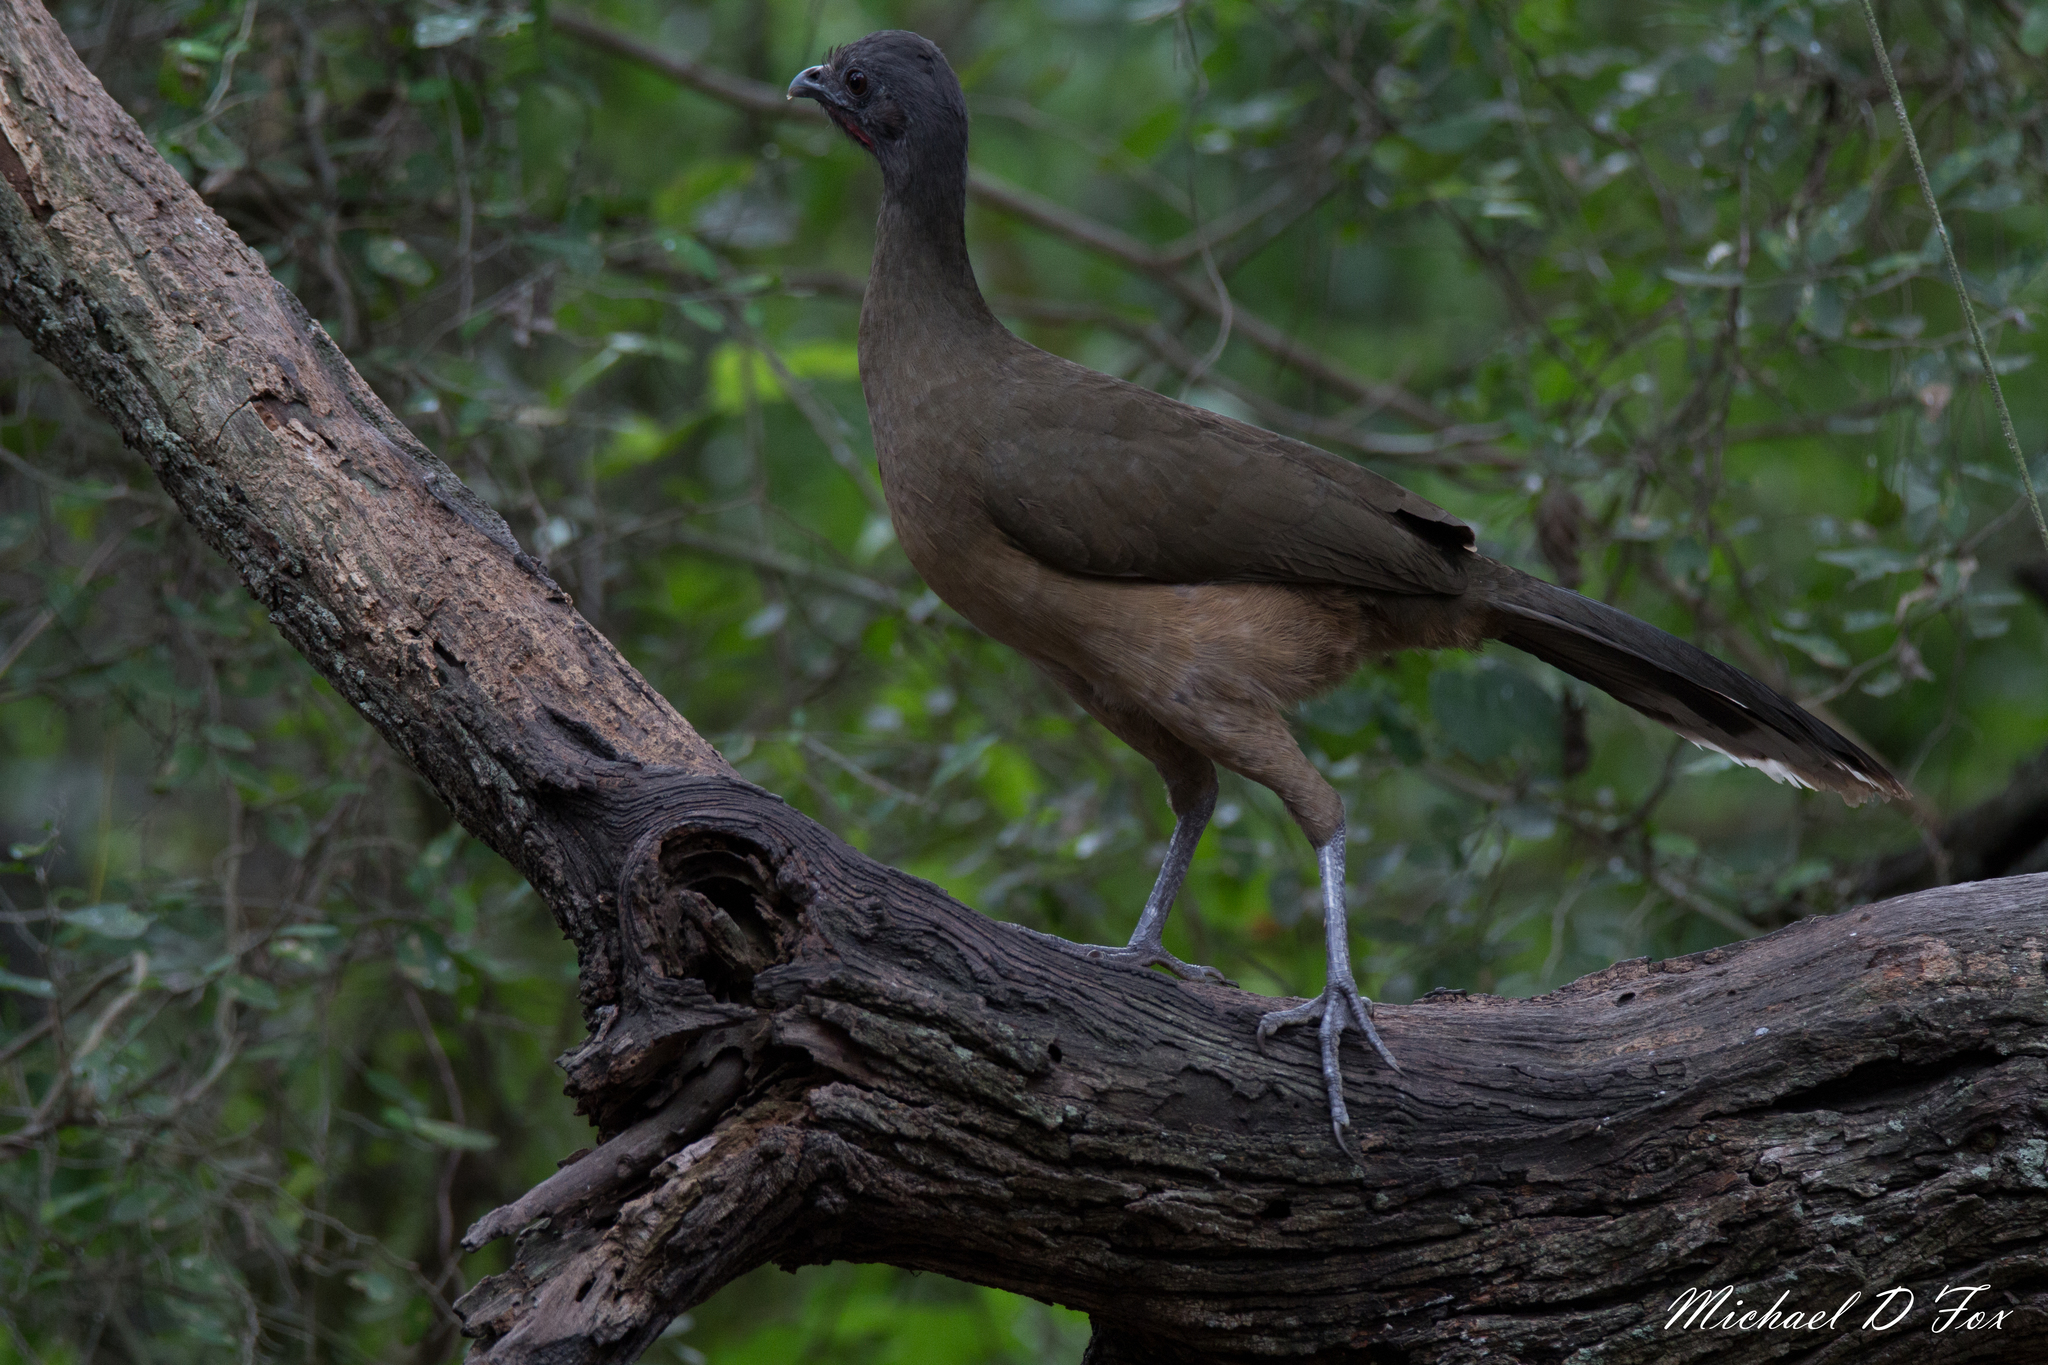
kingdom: Animalia
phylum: Chordata
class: Aves
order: Galliformes
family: Cracidae
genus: Ortalis
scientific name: Ortalis vetula
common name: Plain chachalaca
